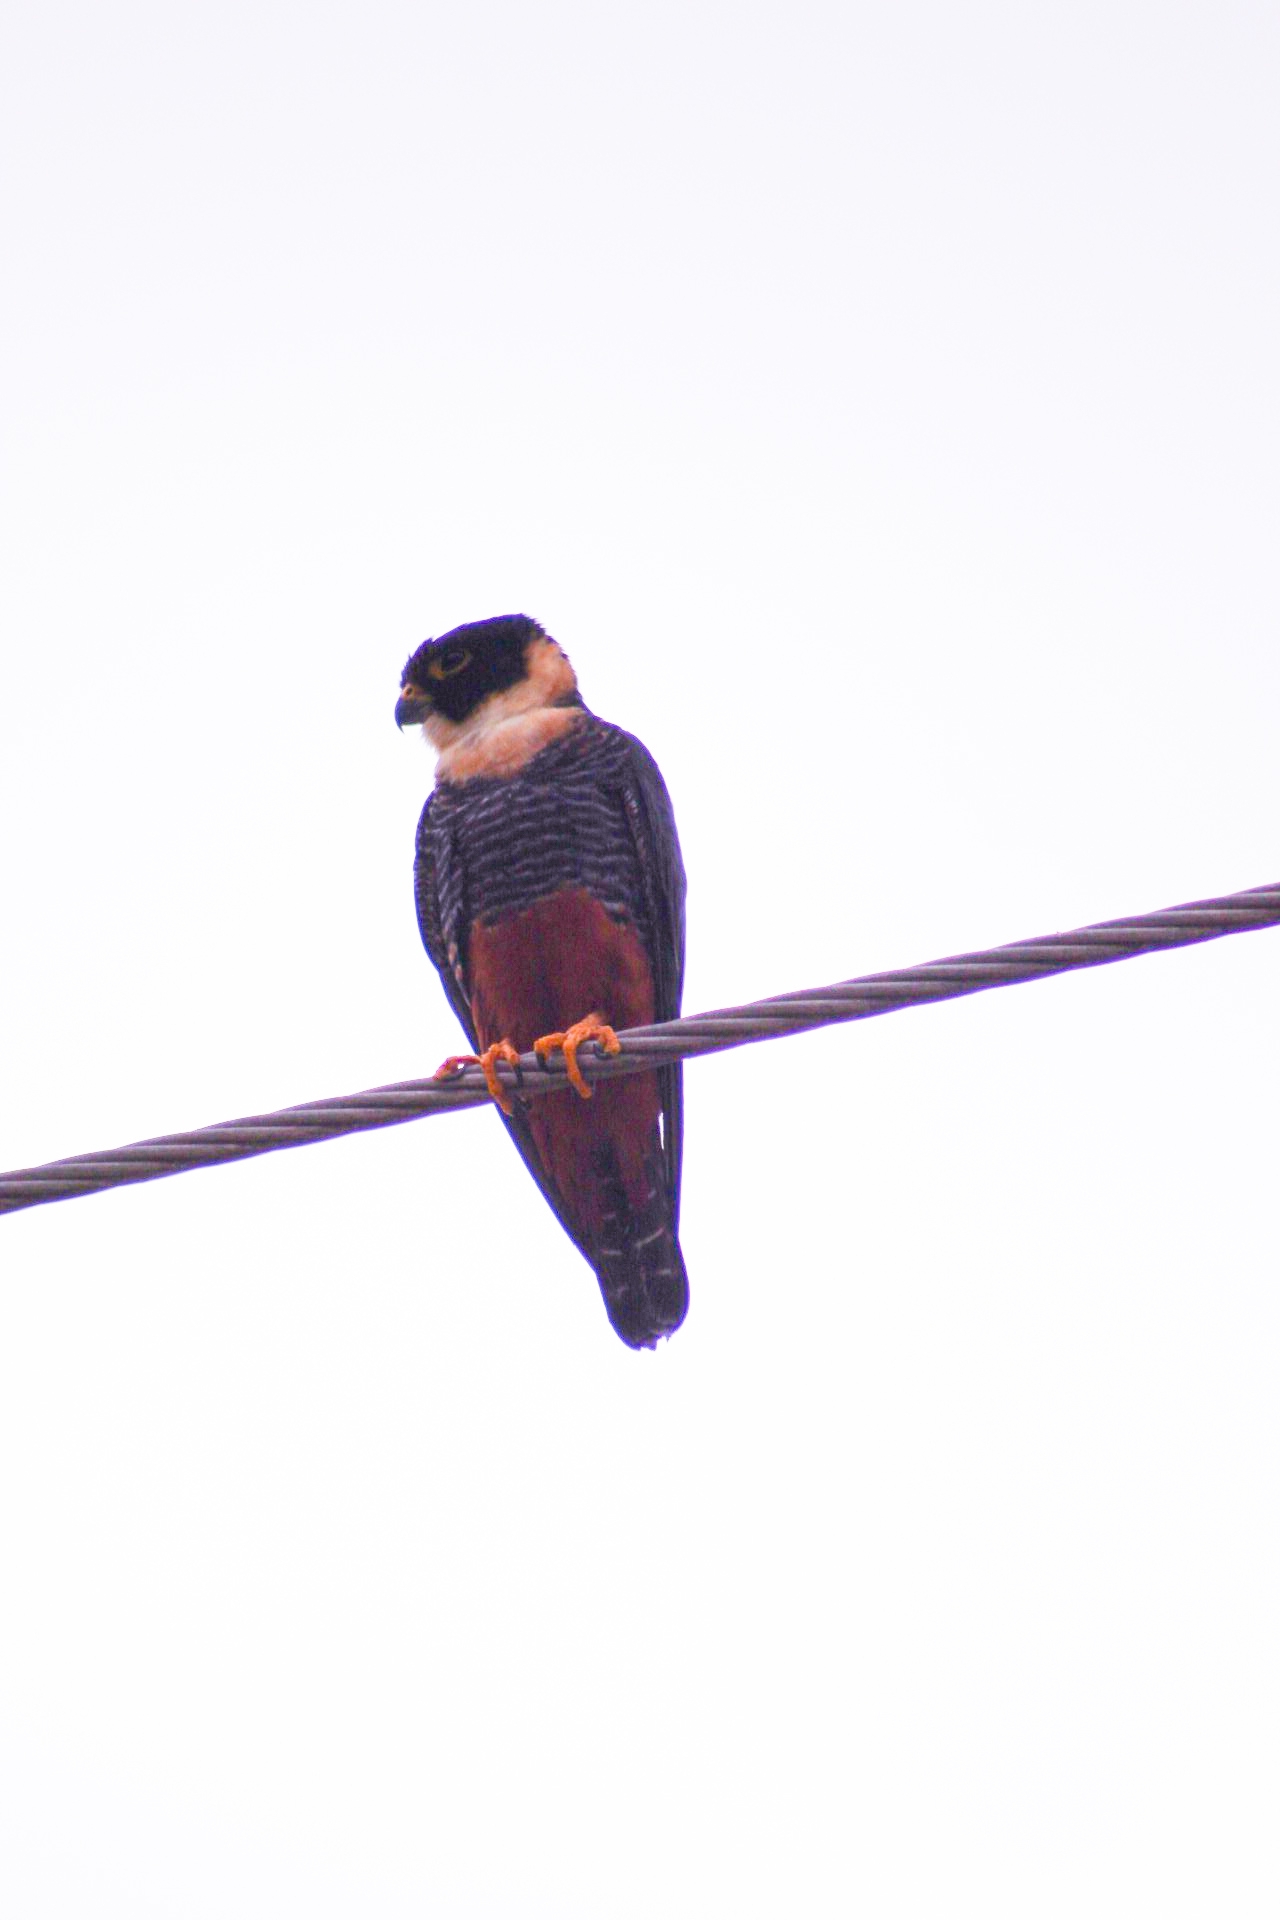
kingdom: Animalia
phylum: Chordata
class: Aves
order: Falconiformes
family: Falconidae
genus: Falco
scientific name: Falco rufigularis
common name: Bat falcon
